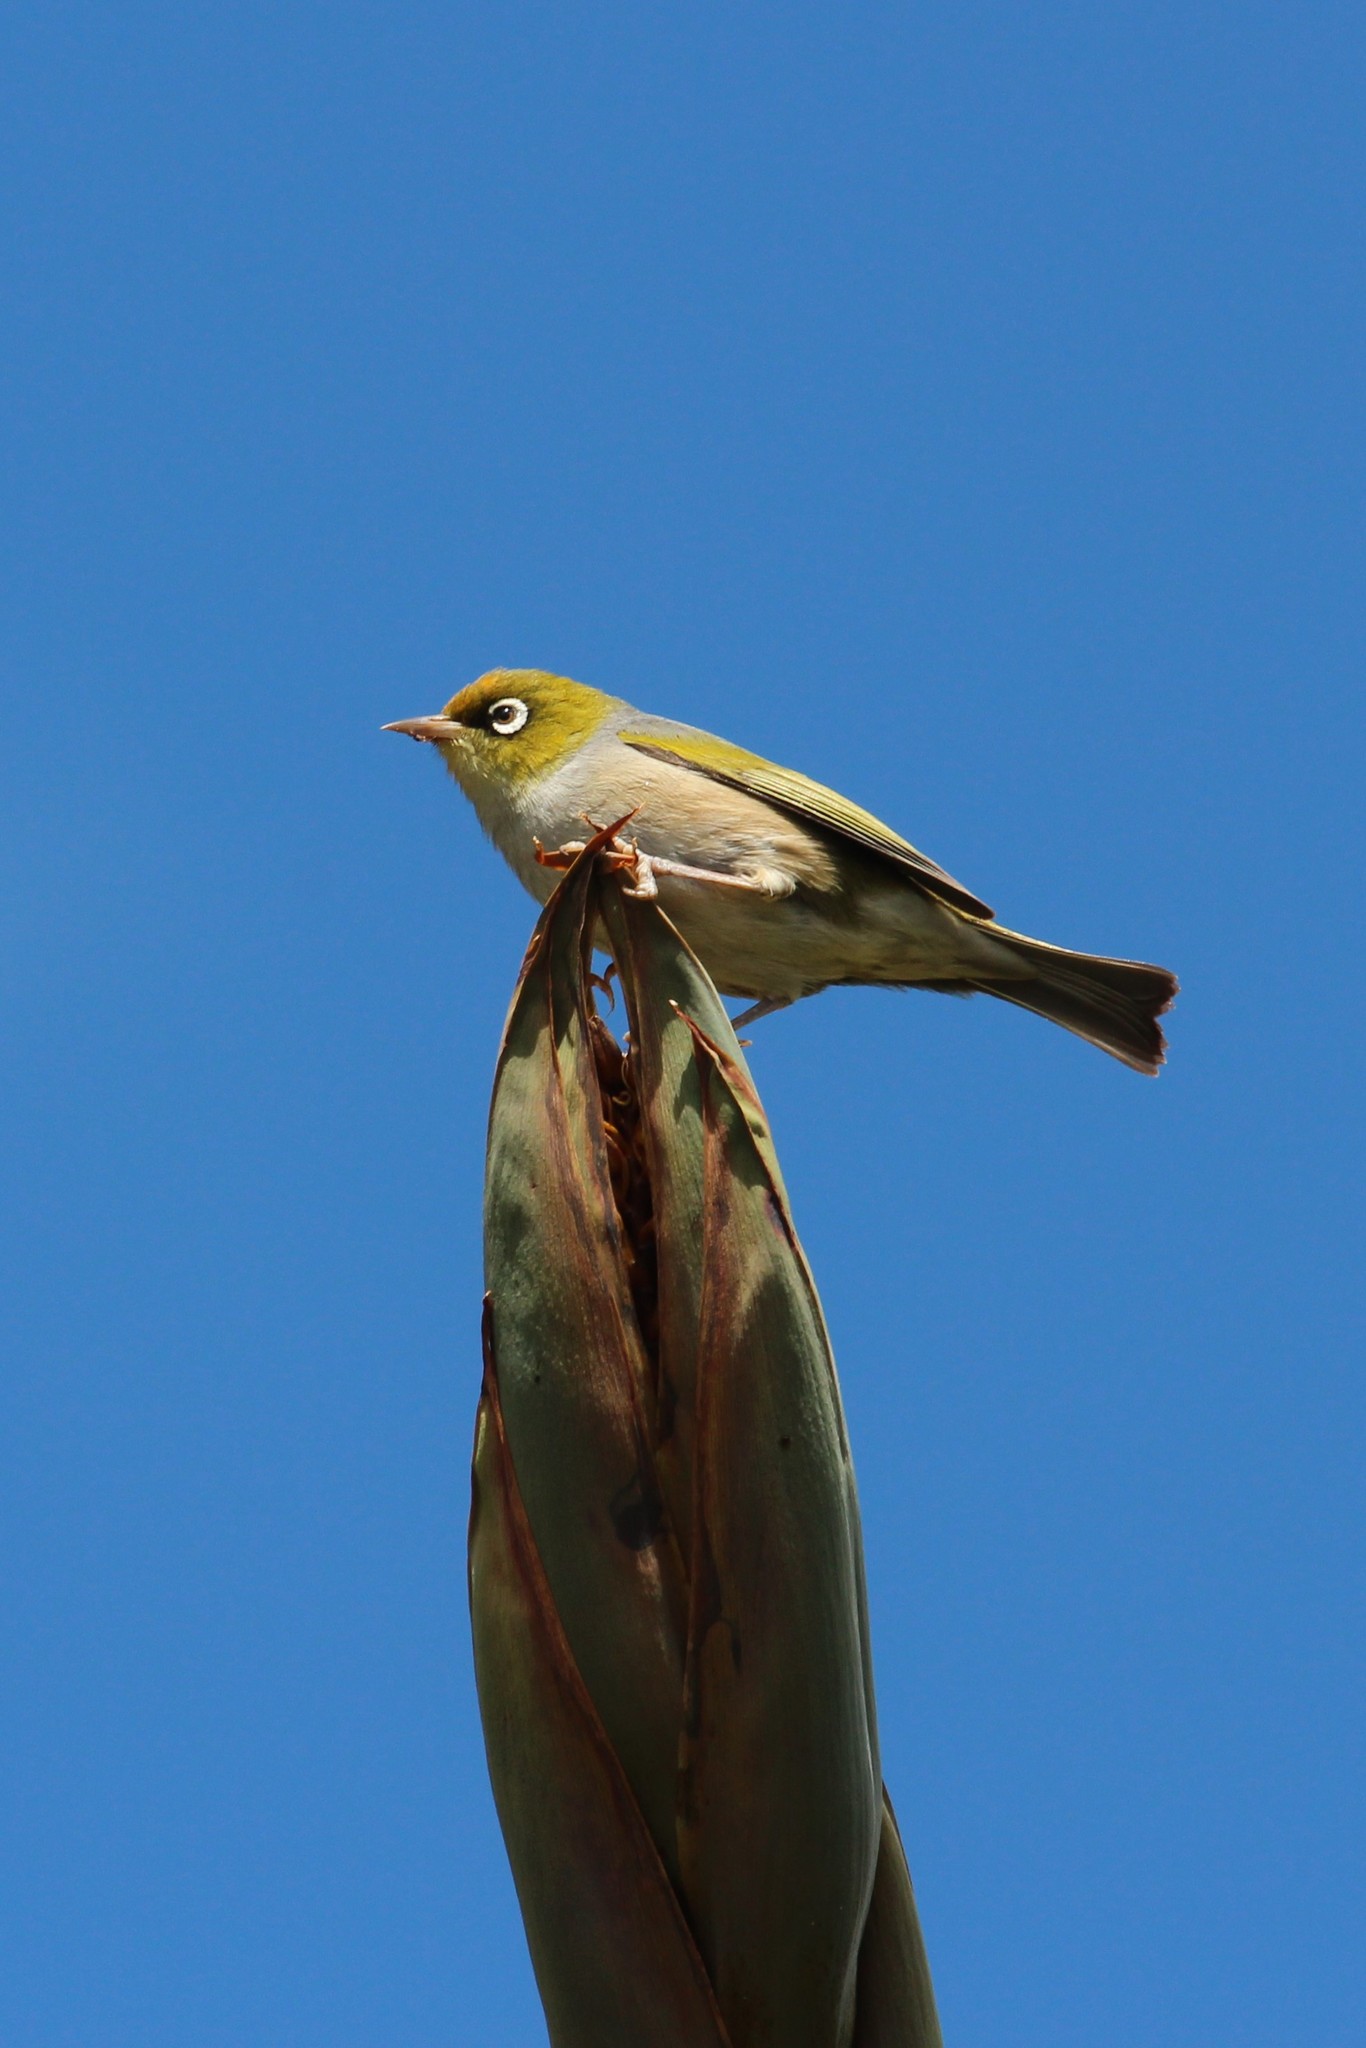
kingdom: Animalia
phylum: Chordata
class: Aves
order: Passeriformes
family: Zosteropidae
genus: Zosterops
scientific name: Zosterops lateralis
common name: Silvereye
